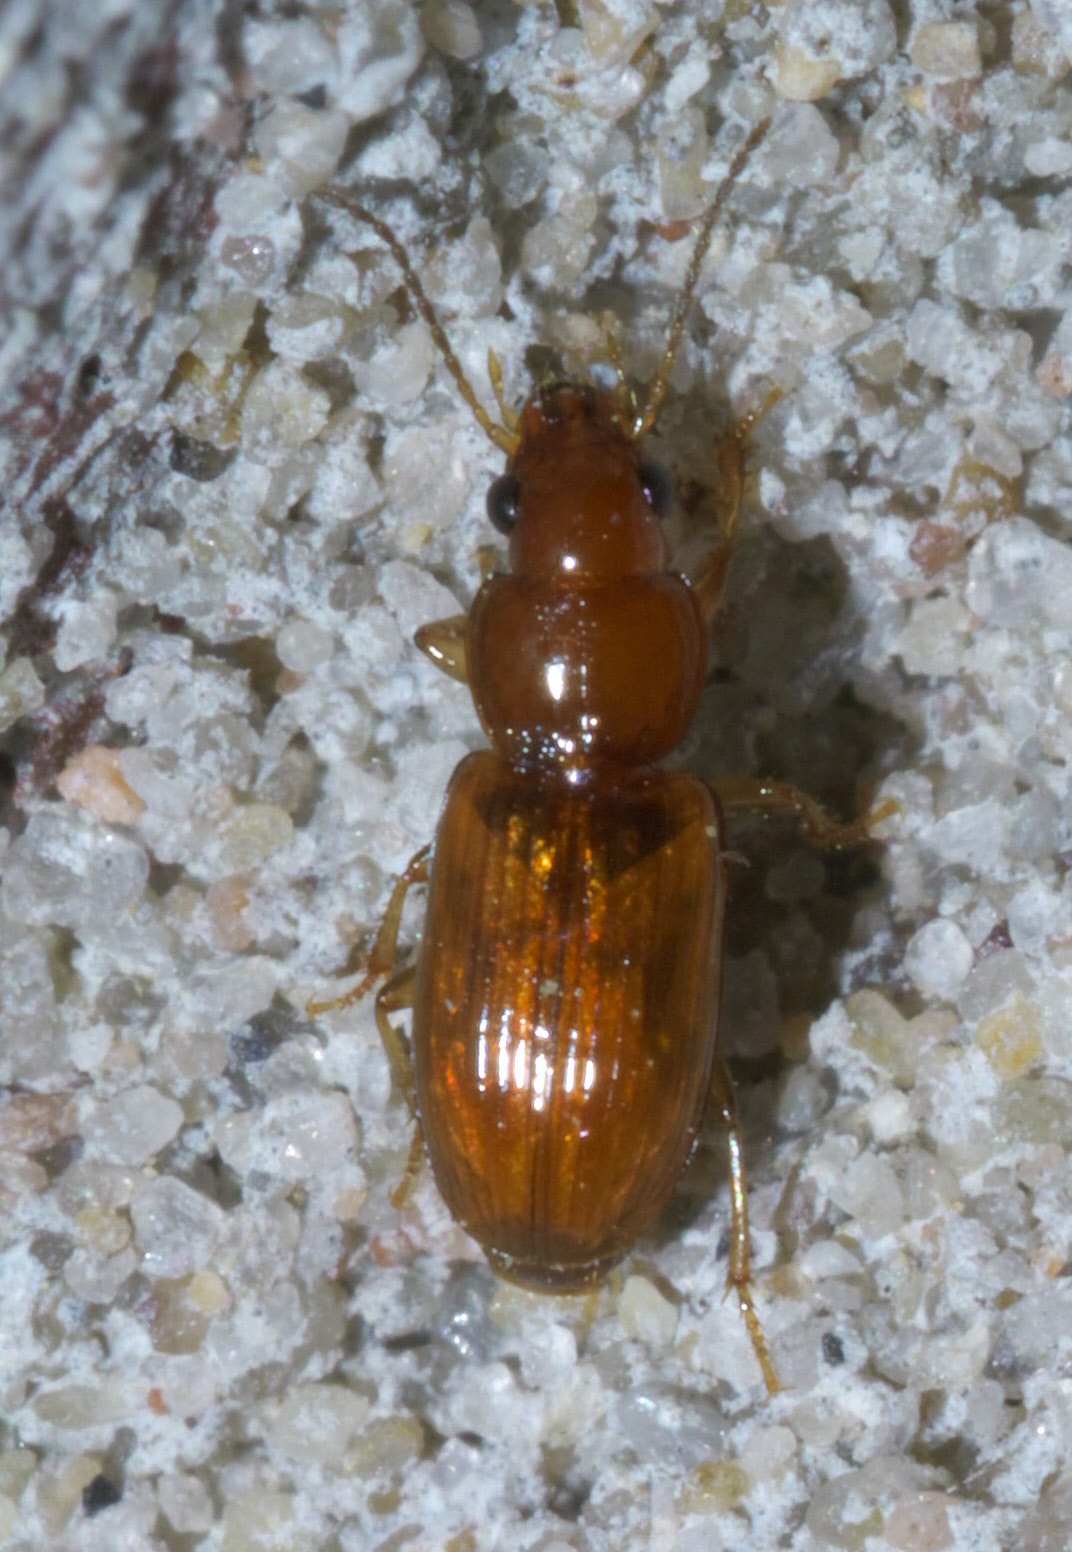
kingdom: Animalia
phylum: Arthropoda
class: Insecta
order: Coleoptera
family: Carabidae
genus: Acupalpus
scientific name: Acupalpus testaceus
